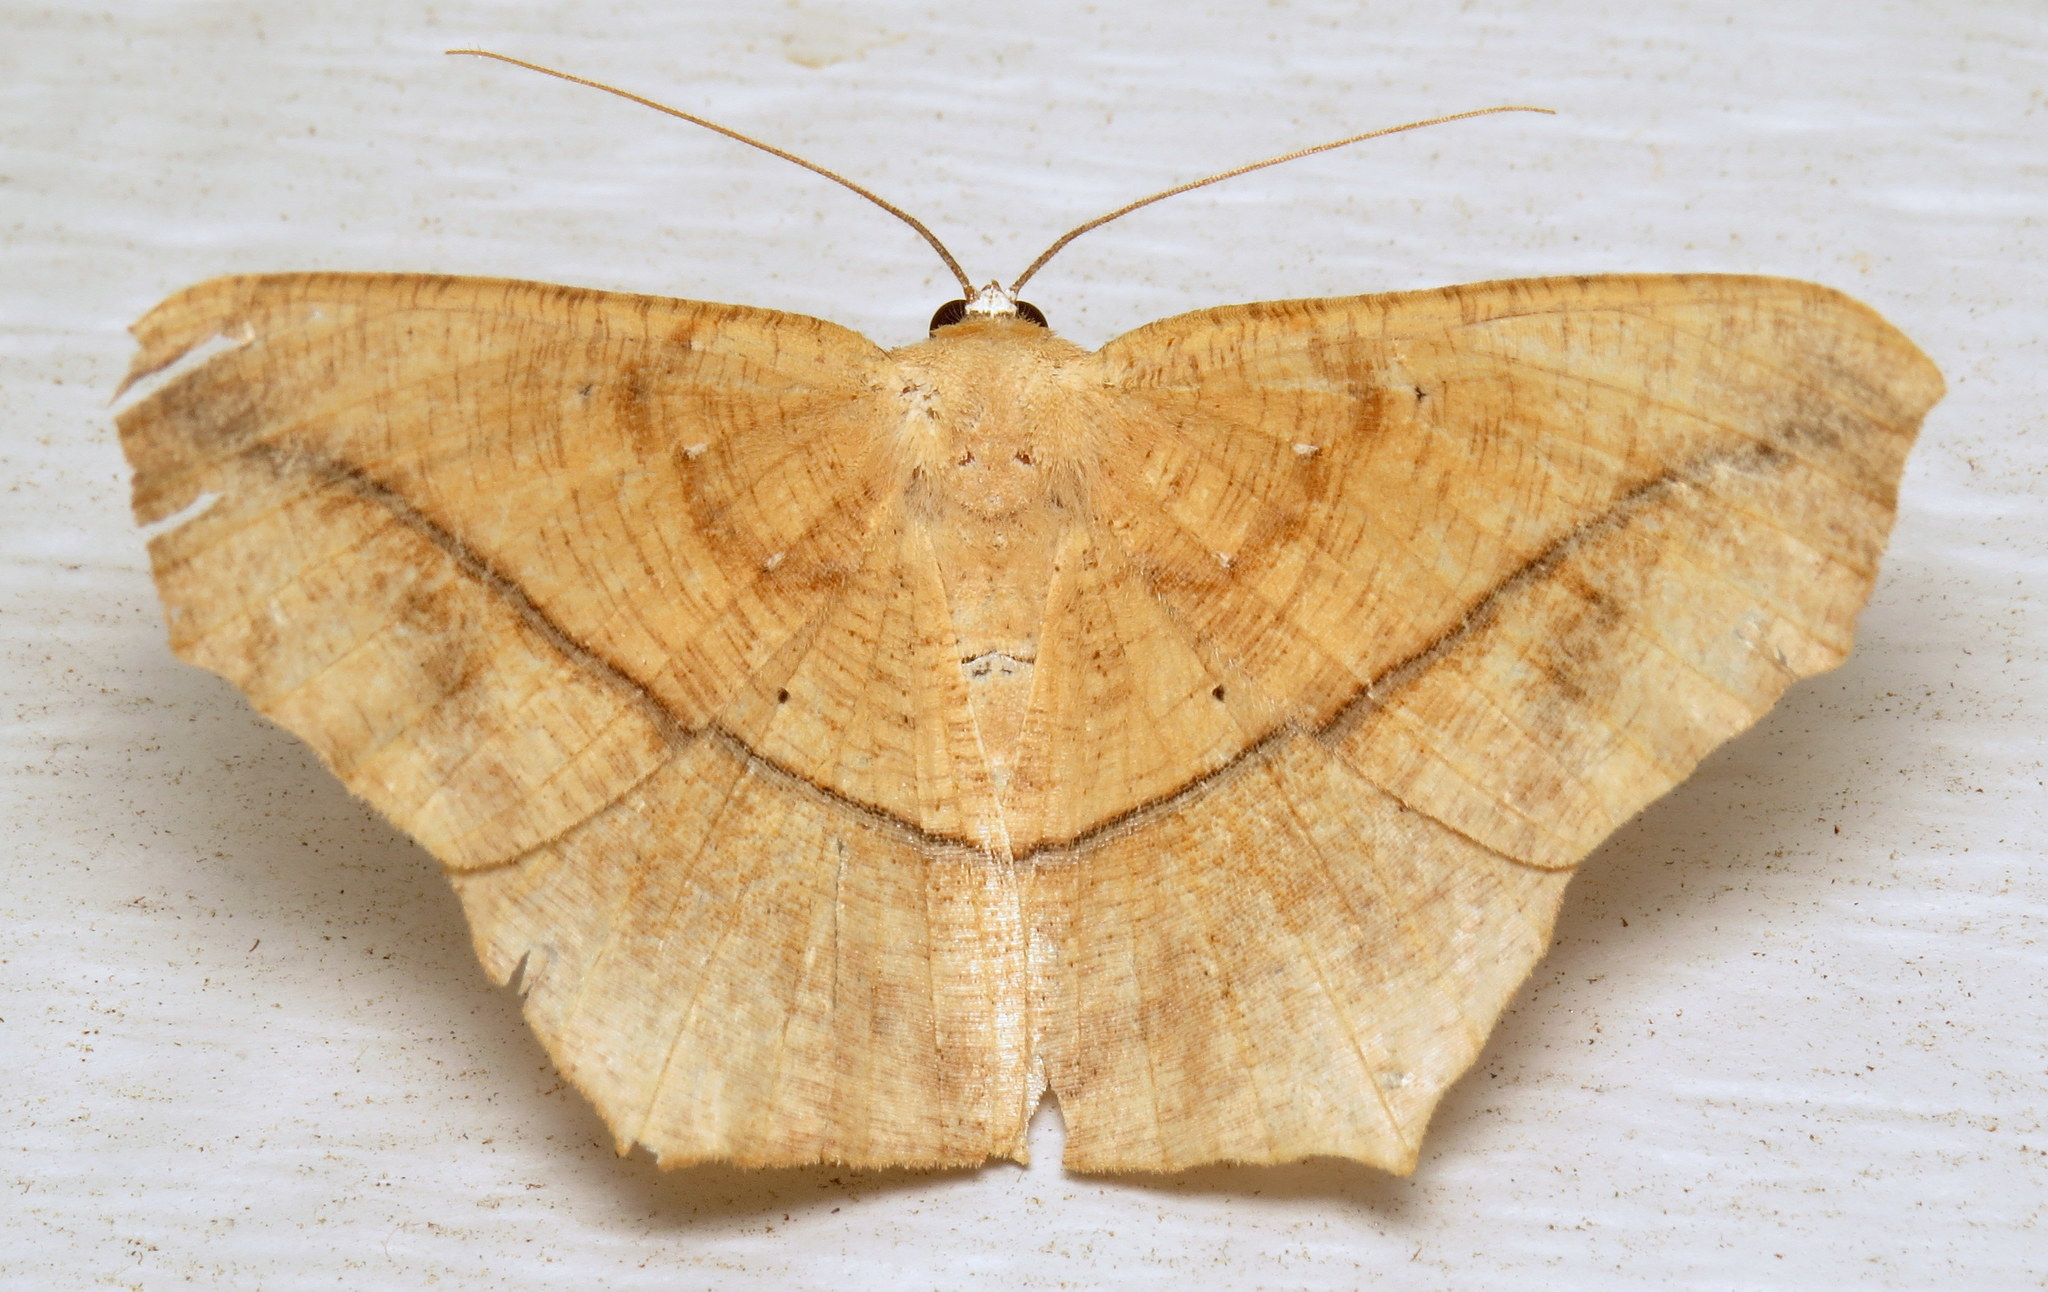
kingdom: Animalia
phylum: Arthropoda
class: Insecta
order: Lepidoptera
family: Geometridae
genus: Prochoerodes
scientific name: Prochoerodes lineola
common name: Large maple spanworm
